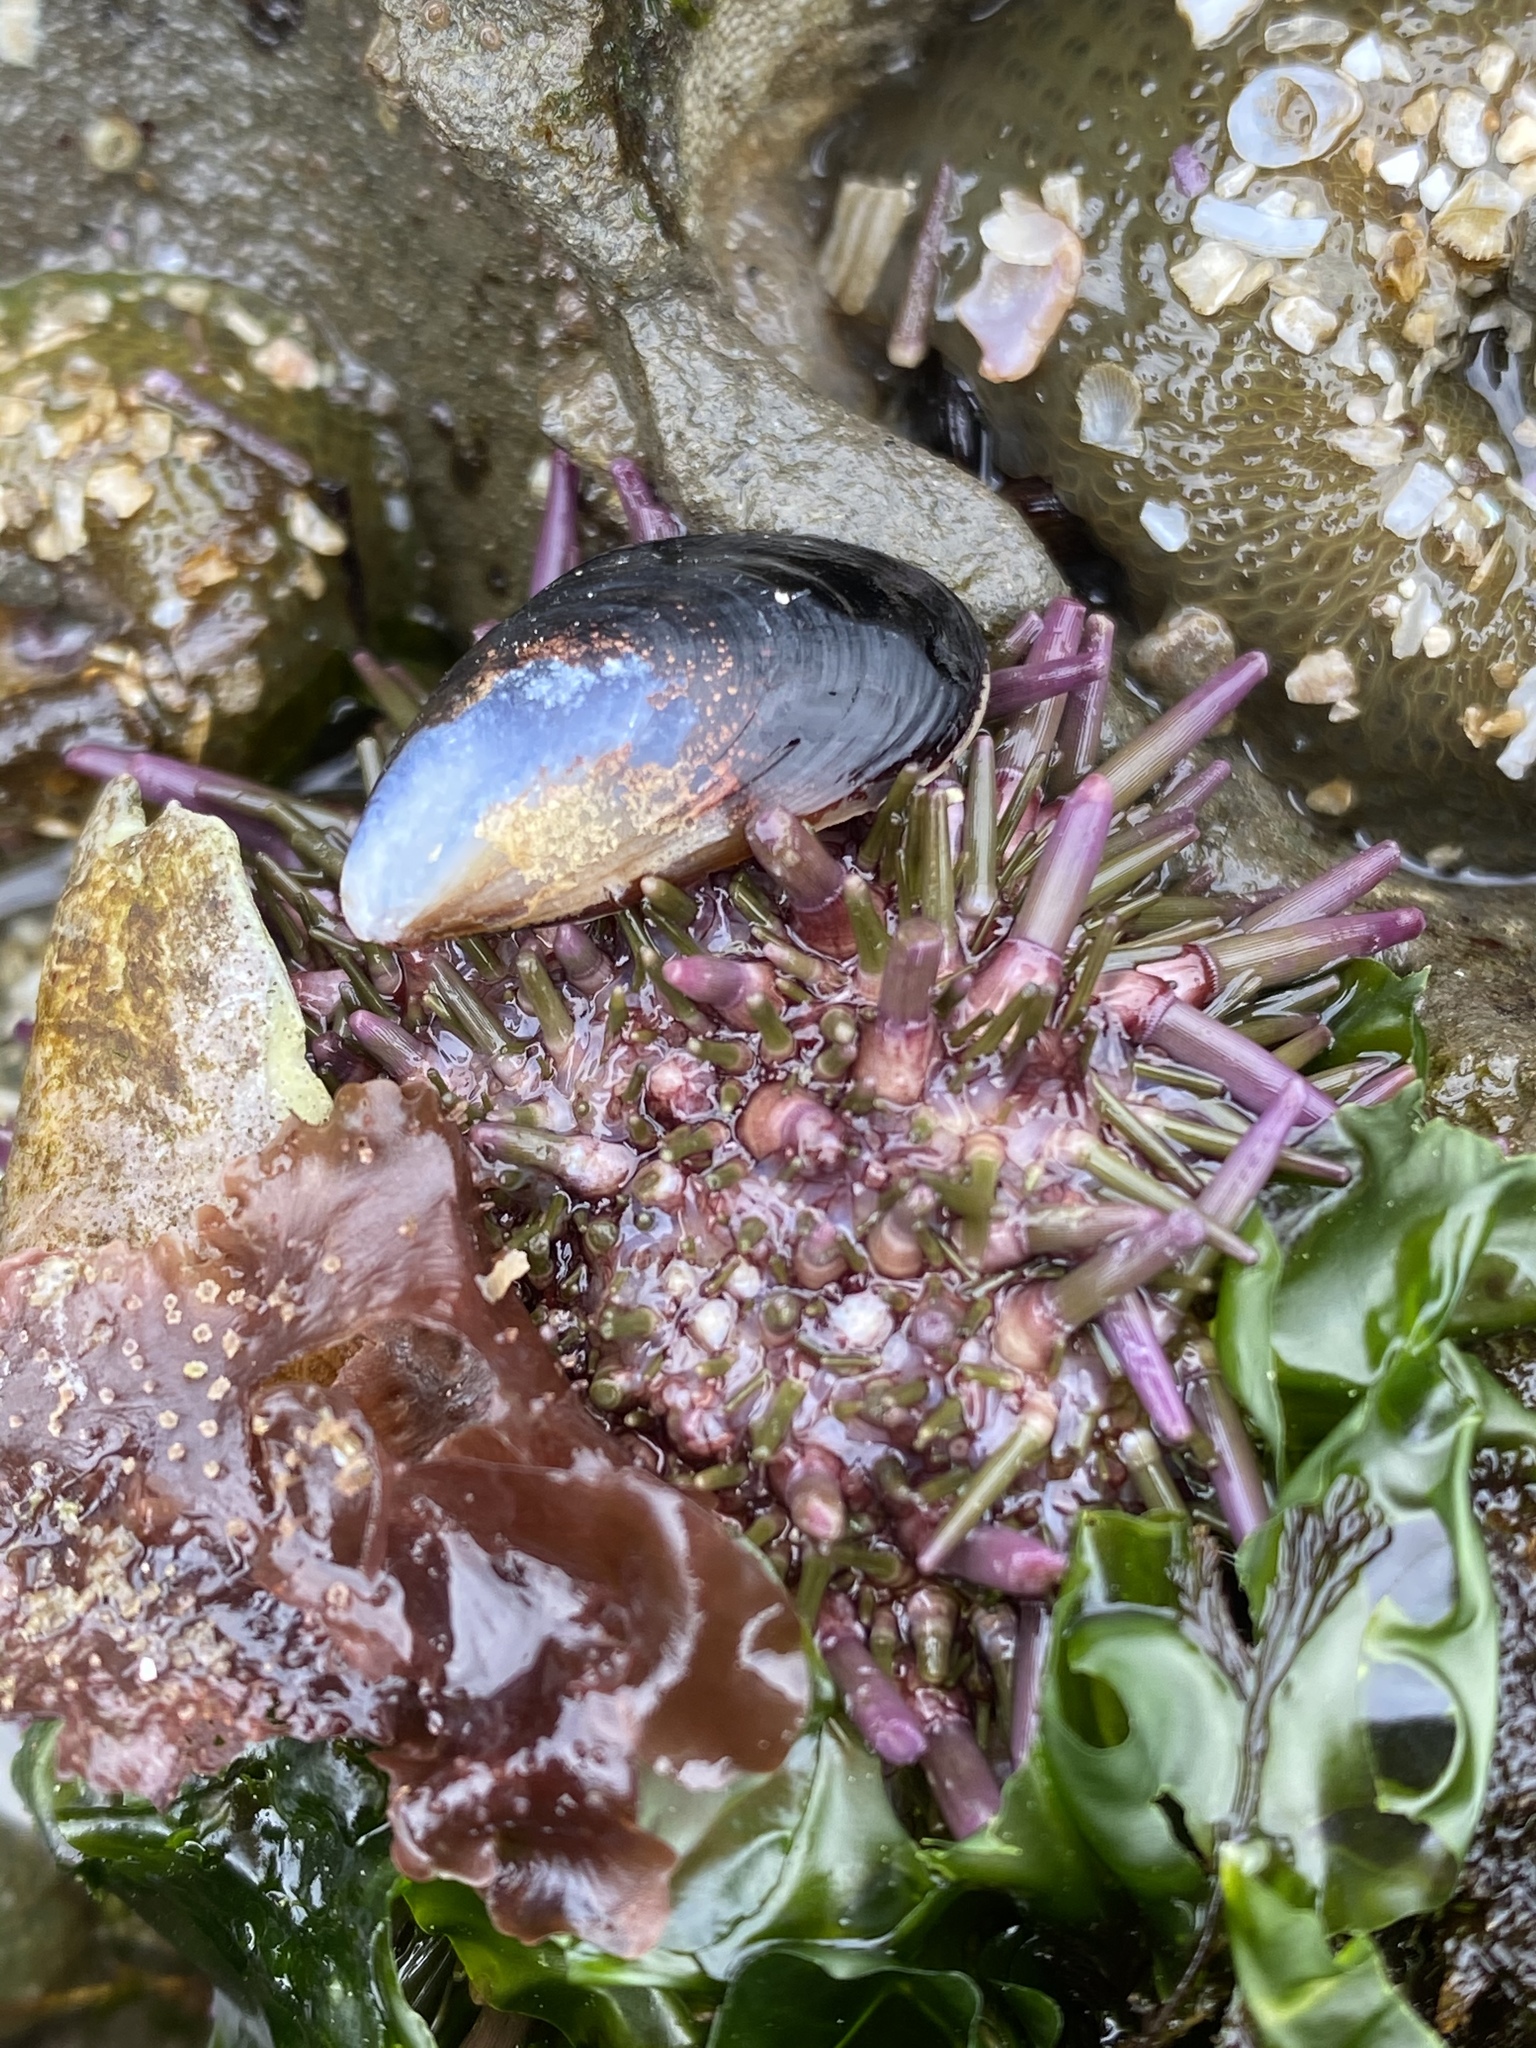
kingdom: Animalia
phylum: Echinodermata
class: Echinoidea
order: Camarodonta
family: Strongylocentrotidae
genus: Strongylocentrotus
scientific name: Strongylocentrotus purpuratus
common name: Purple sea urchin
